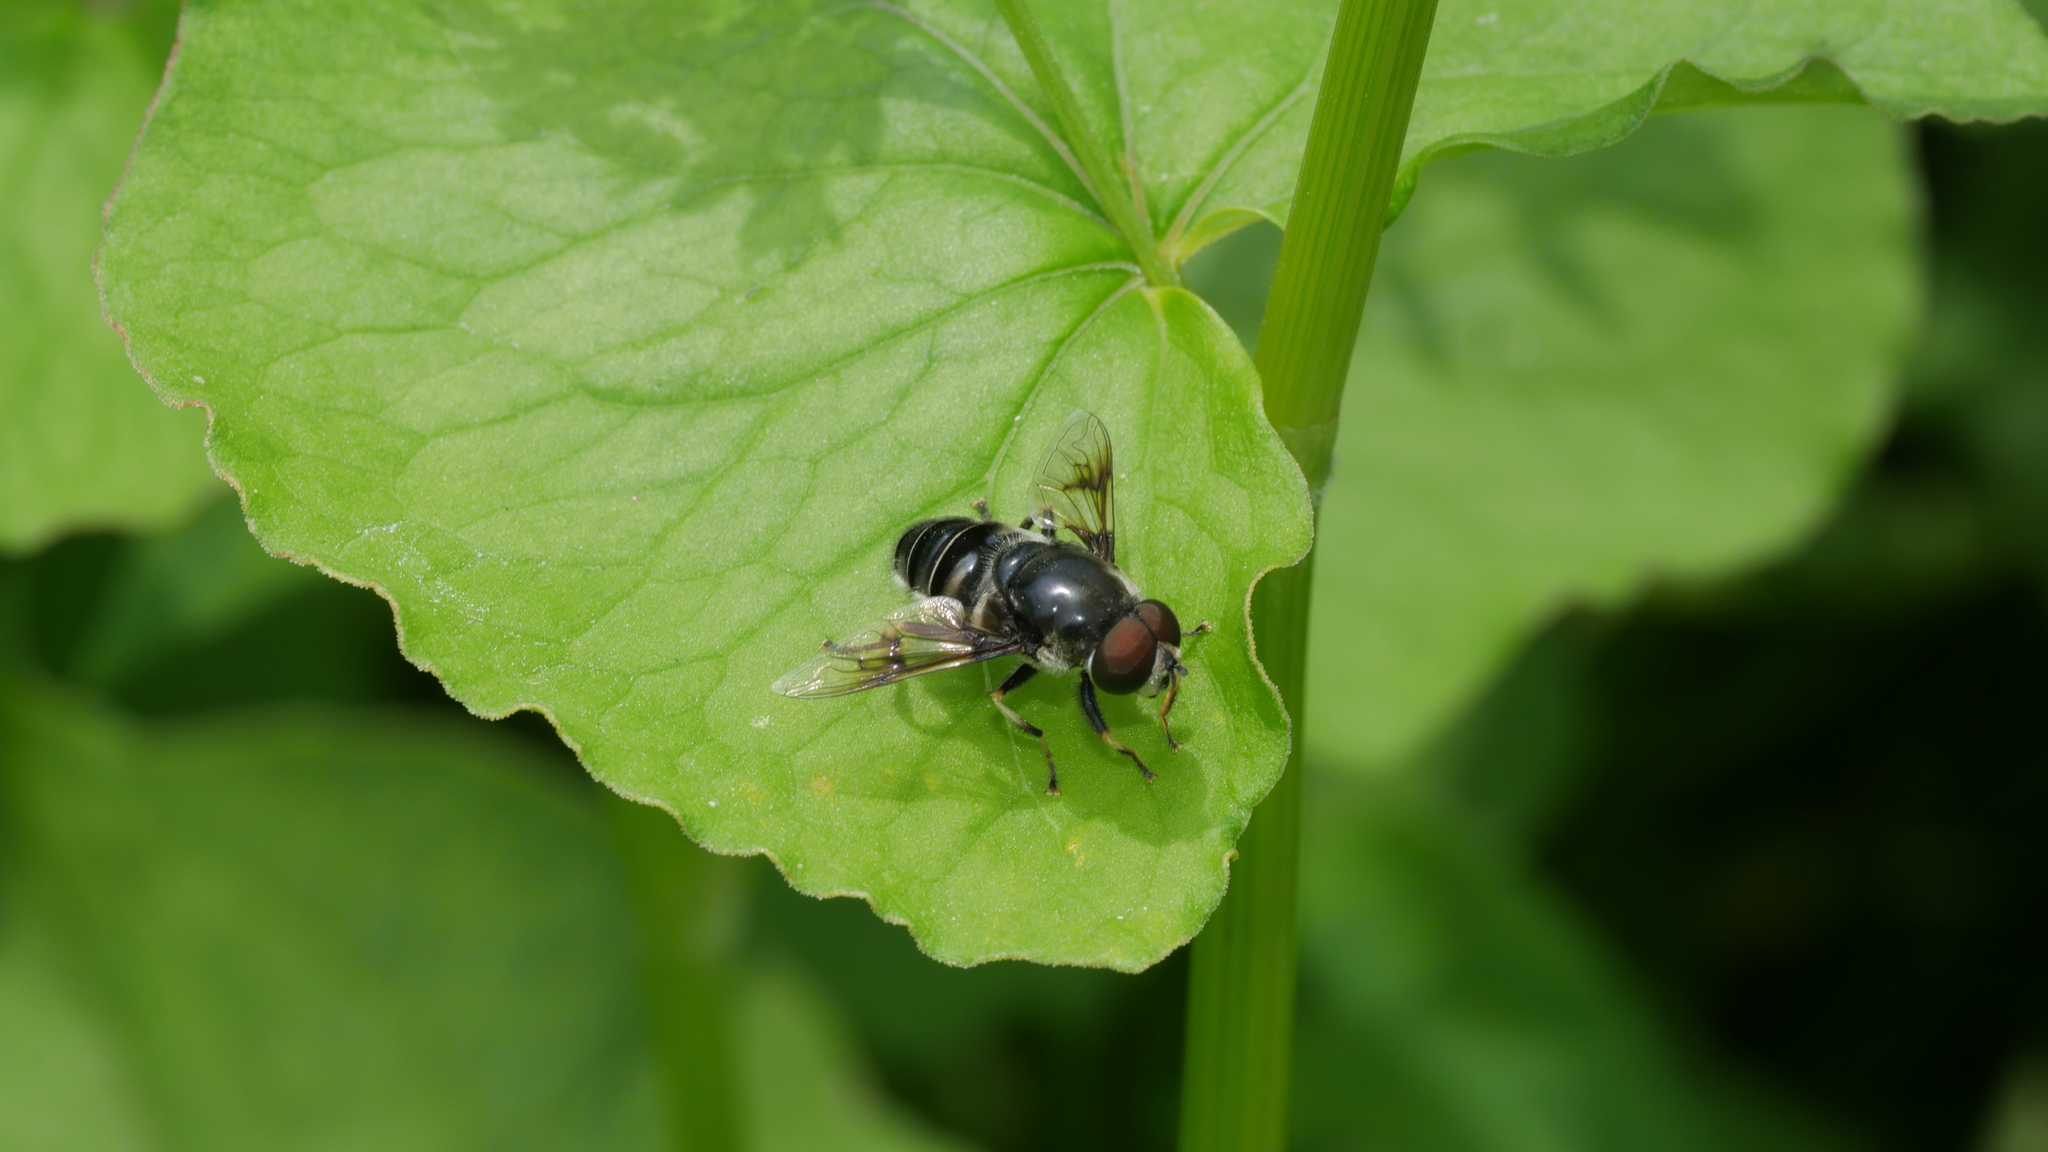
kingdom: Animalia
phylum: Arthropoda
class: Insecta
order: Diptera
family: Syrphidae
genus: Eristalis
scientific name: Eristalis saxorum
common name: Blue-polished drone fly
